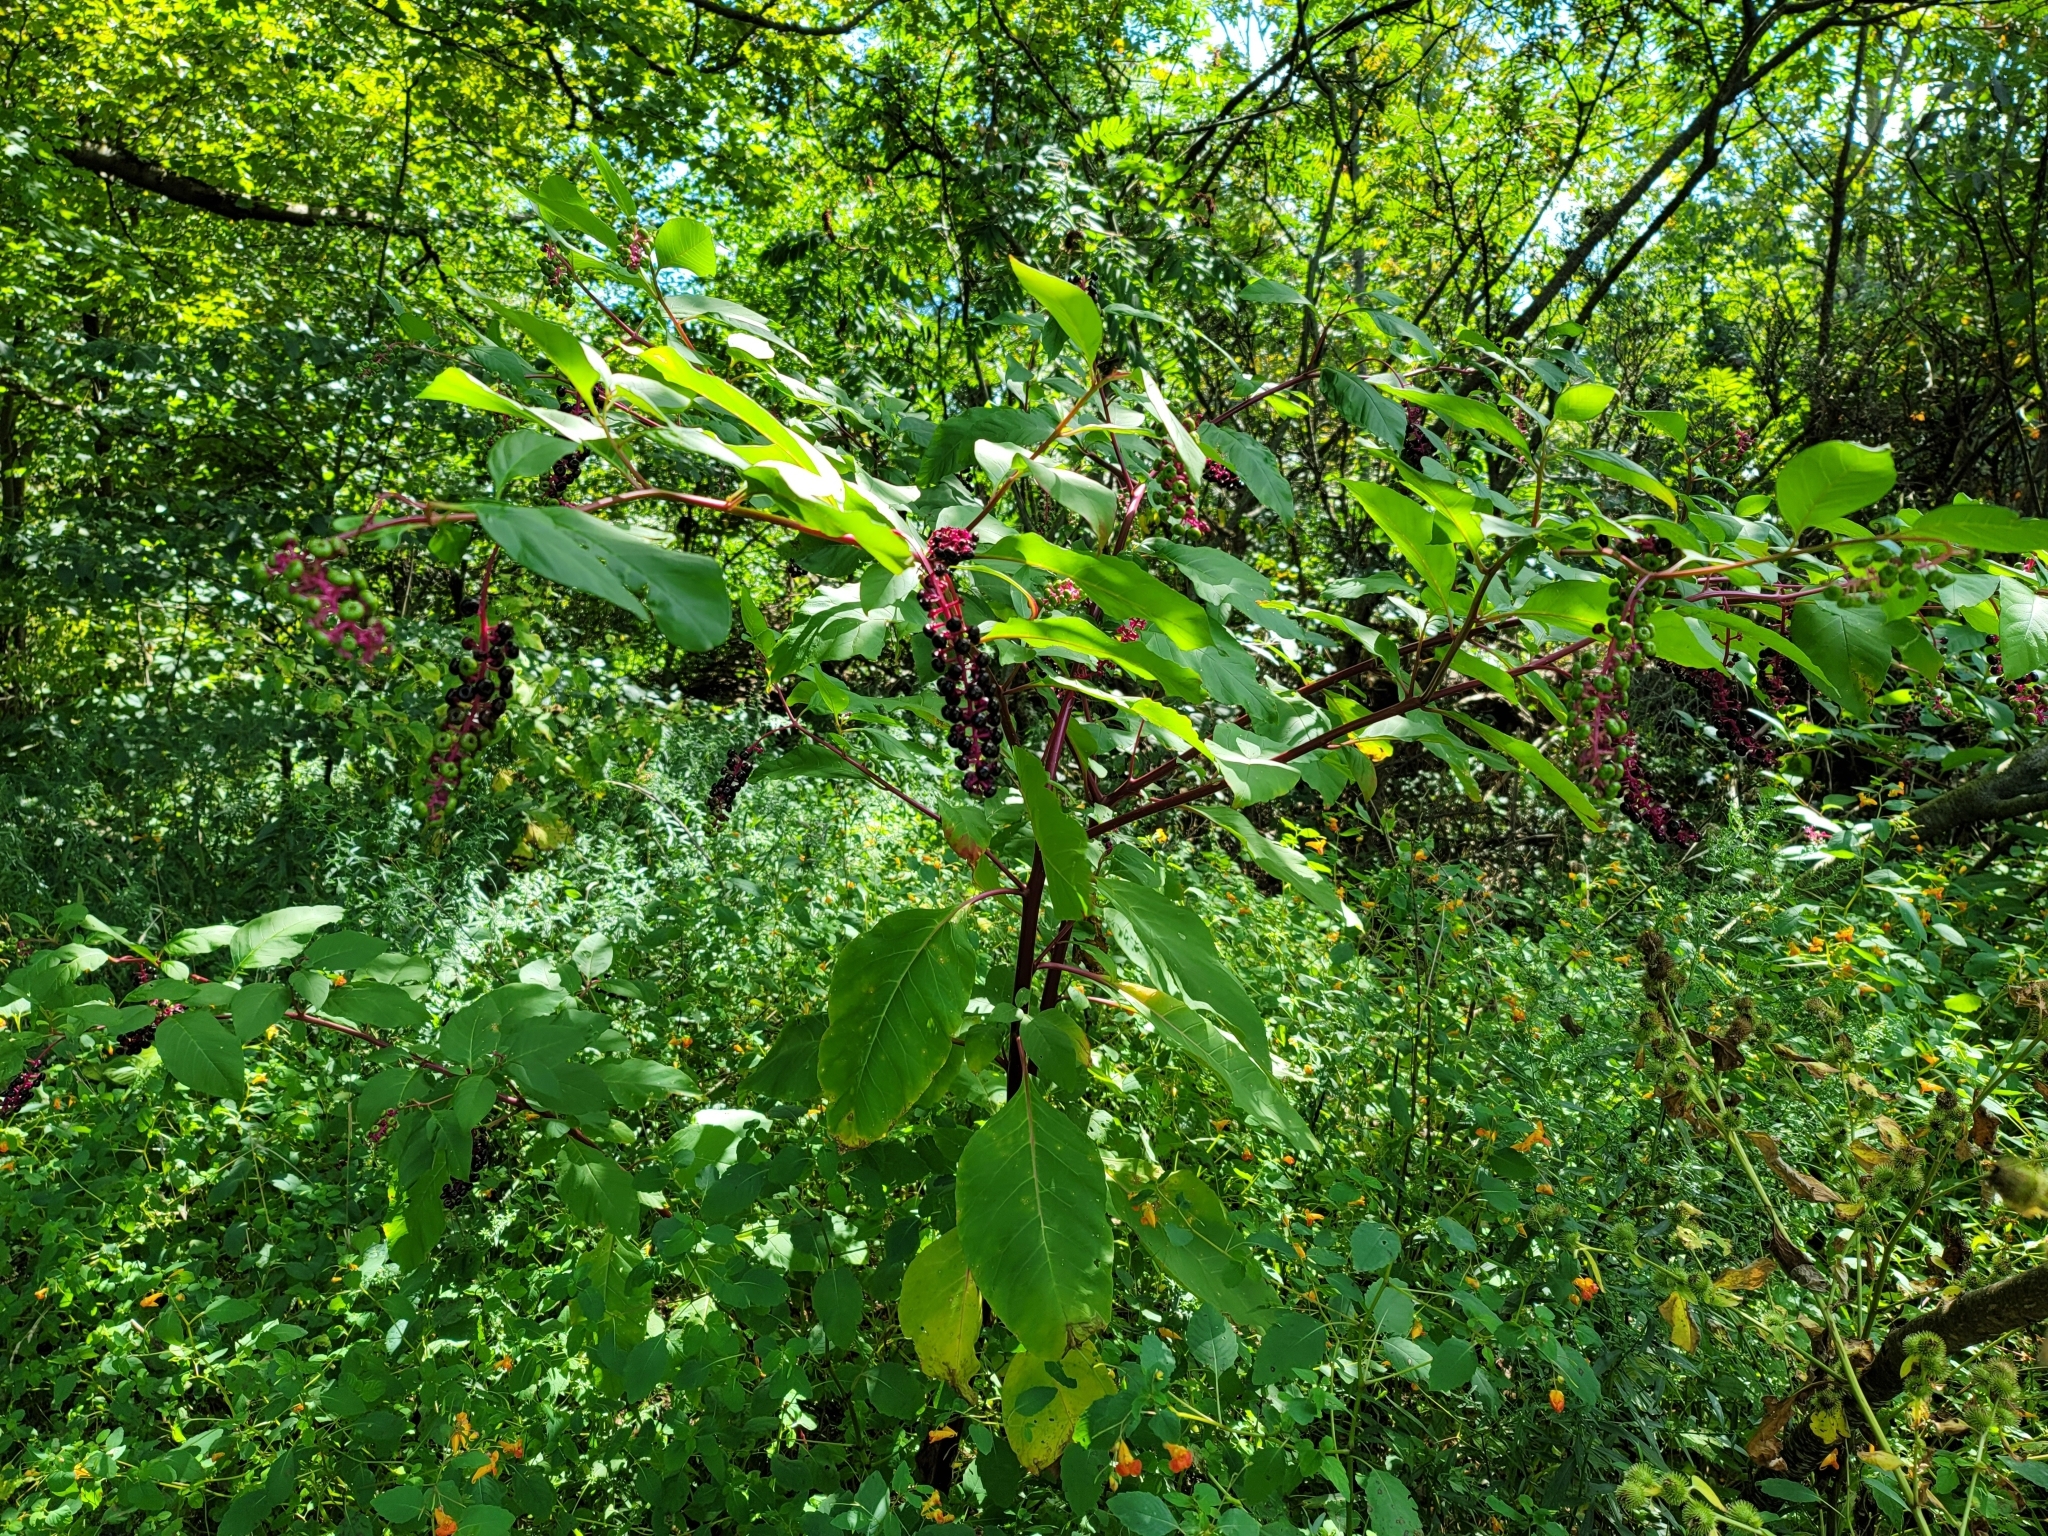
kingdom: Plantae
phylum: Tracheophyta
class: Magnoliopsida
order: Caryophyllales
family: Phytolaccaceae
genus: Phytolacca
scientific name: Phytolacca americana
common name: American pokeweed
